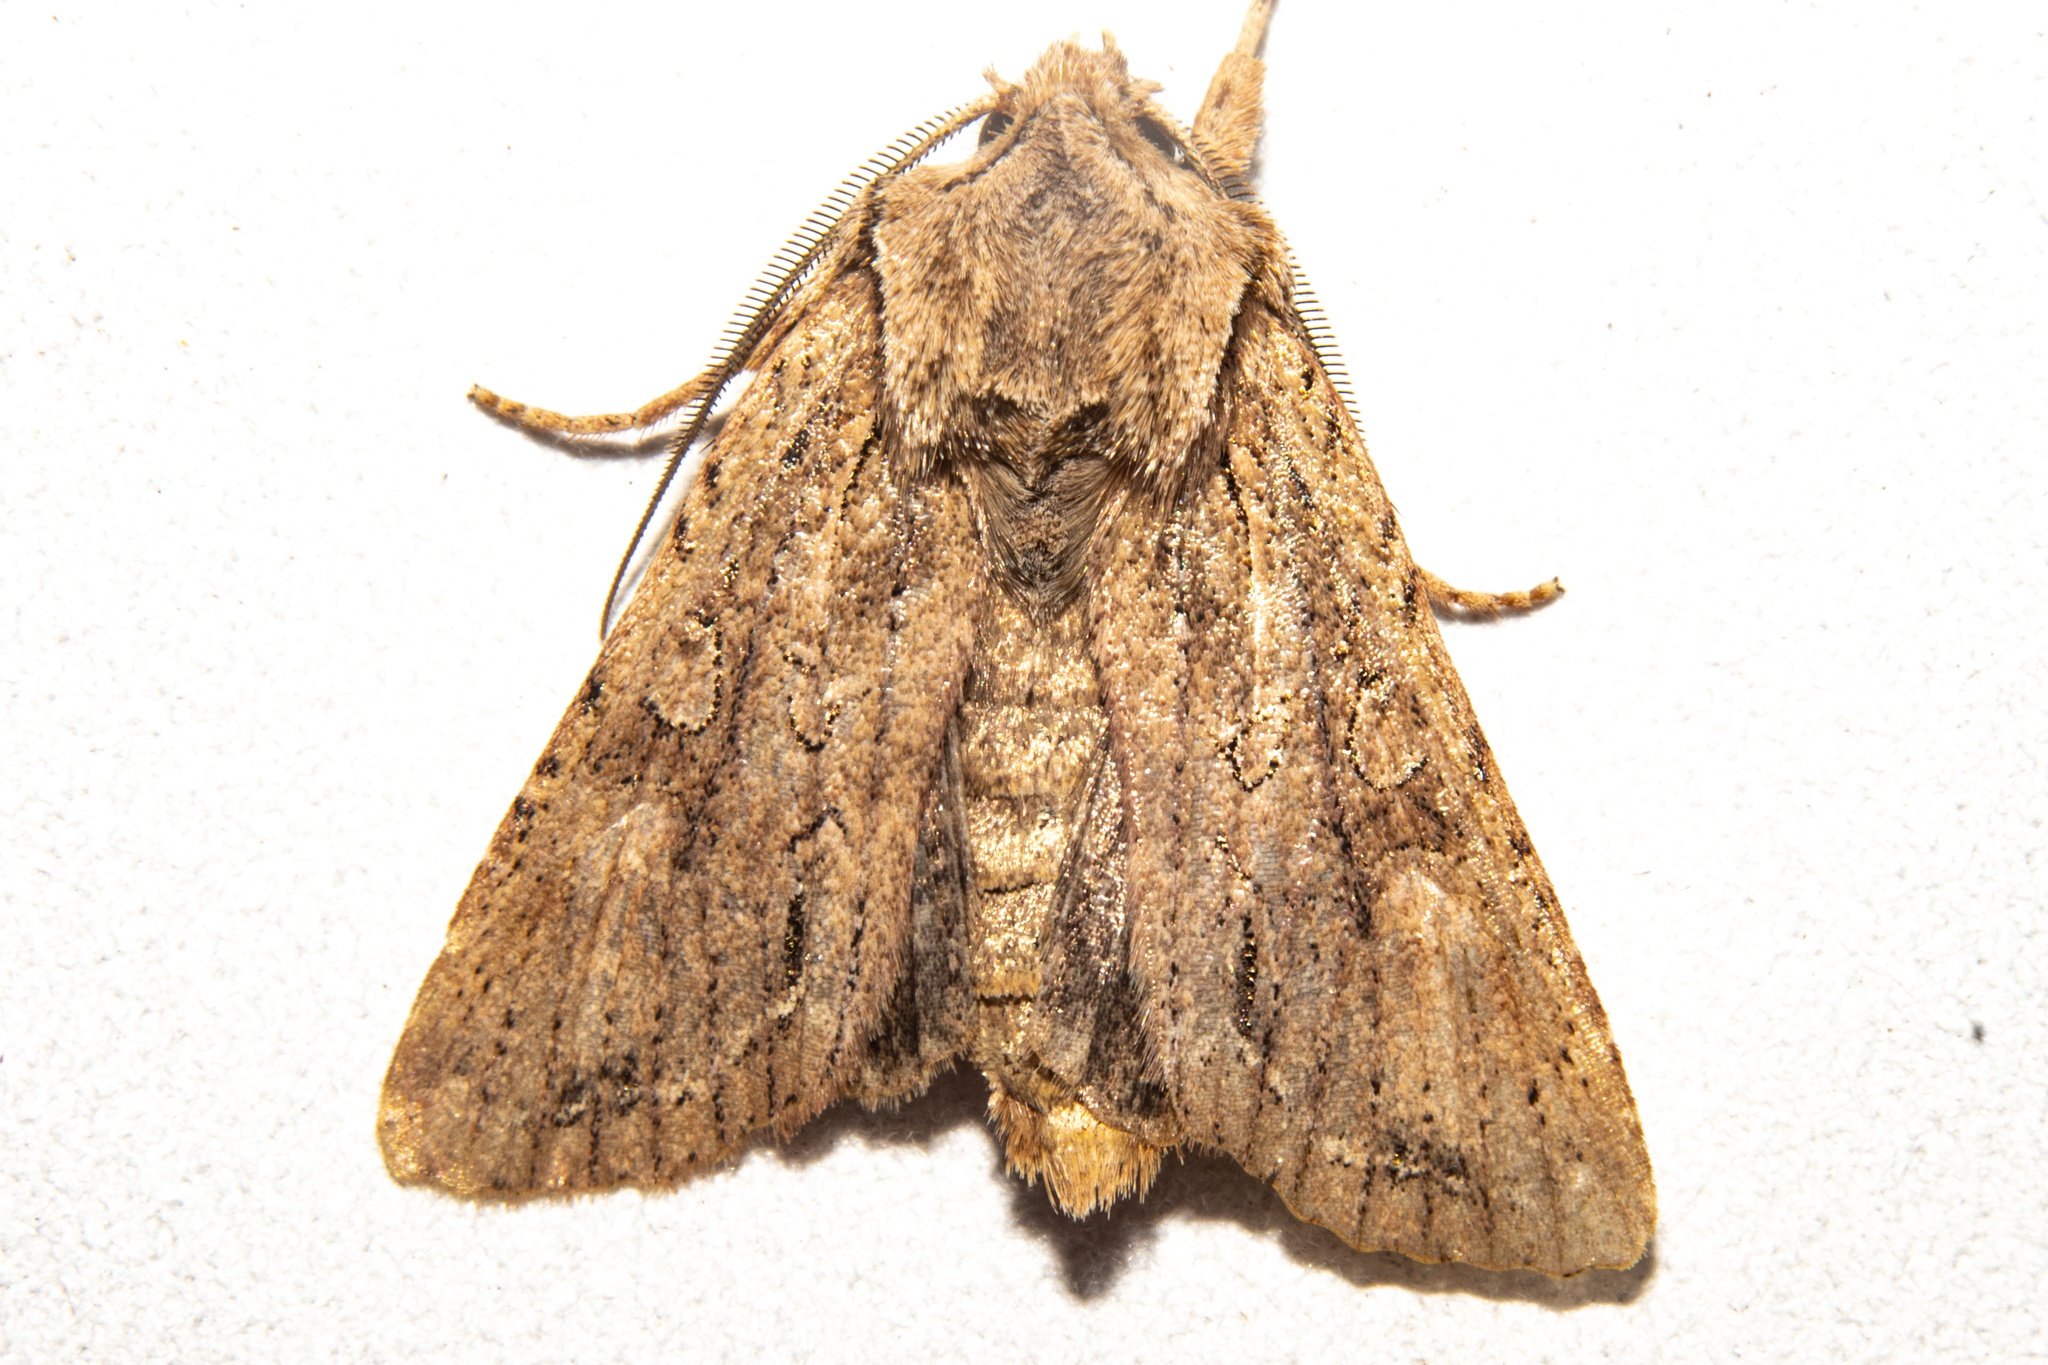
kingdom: Animalia
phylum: Arthropoda
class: Insecta
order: Lepidoptera
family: Noctuidae
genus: Ichneutica
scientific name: Ichneutica
